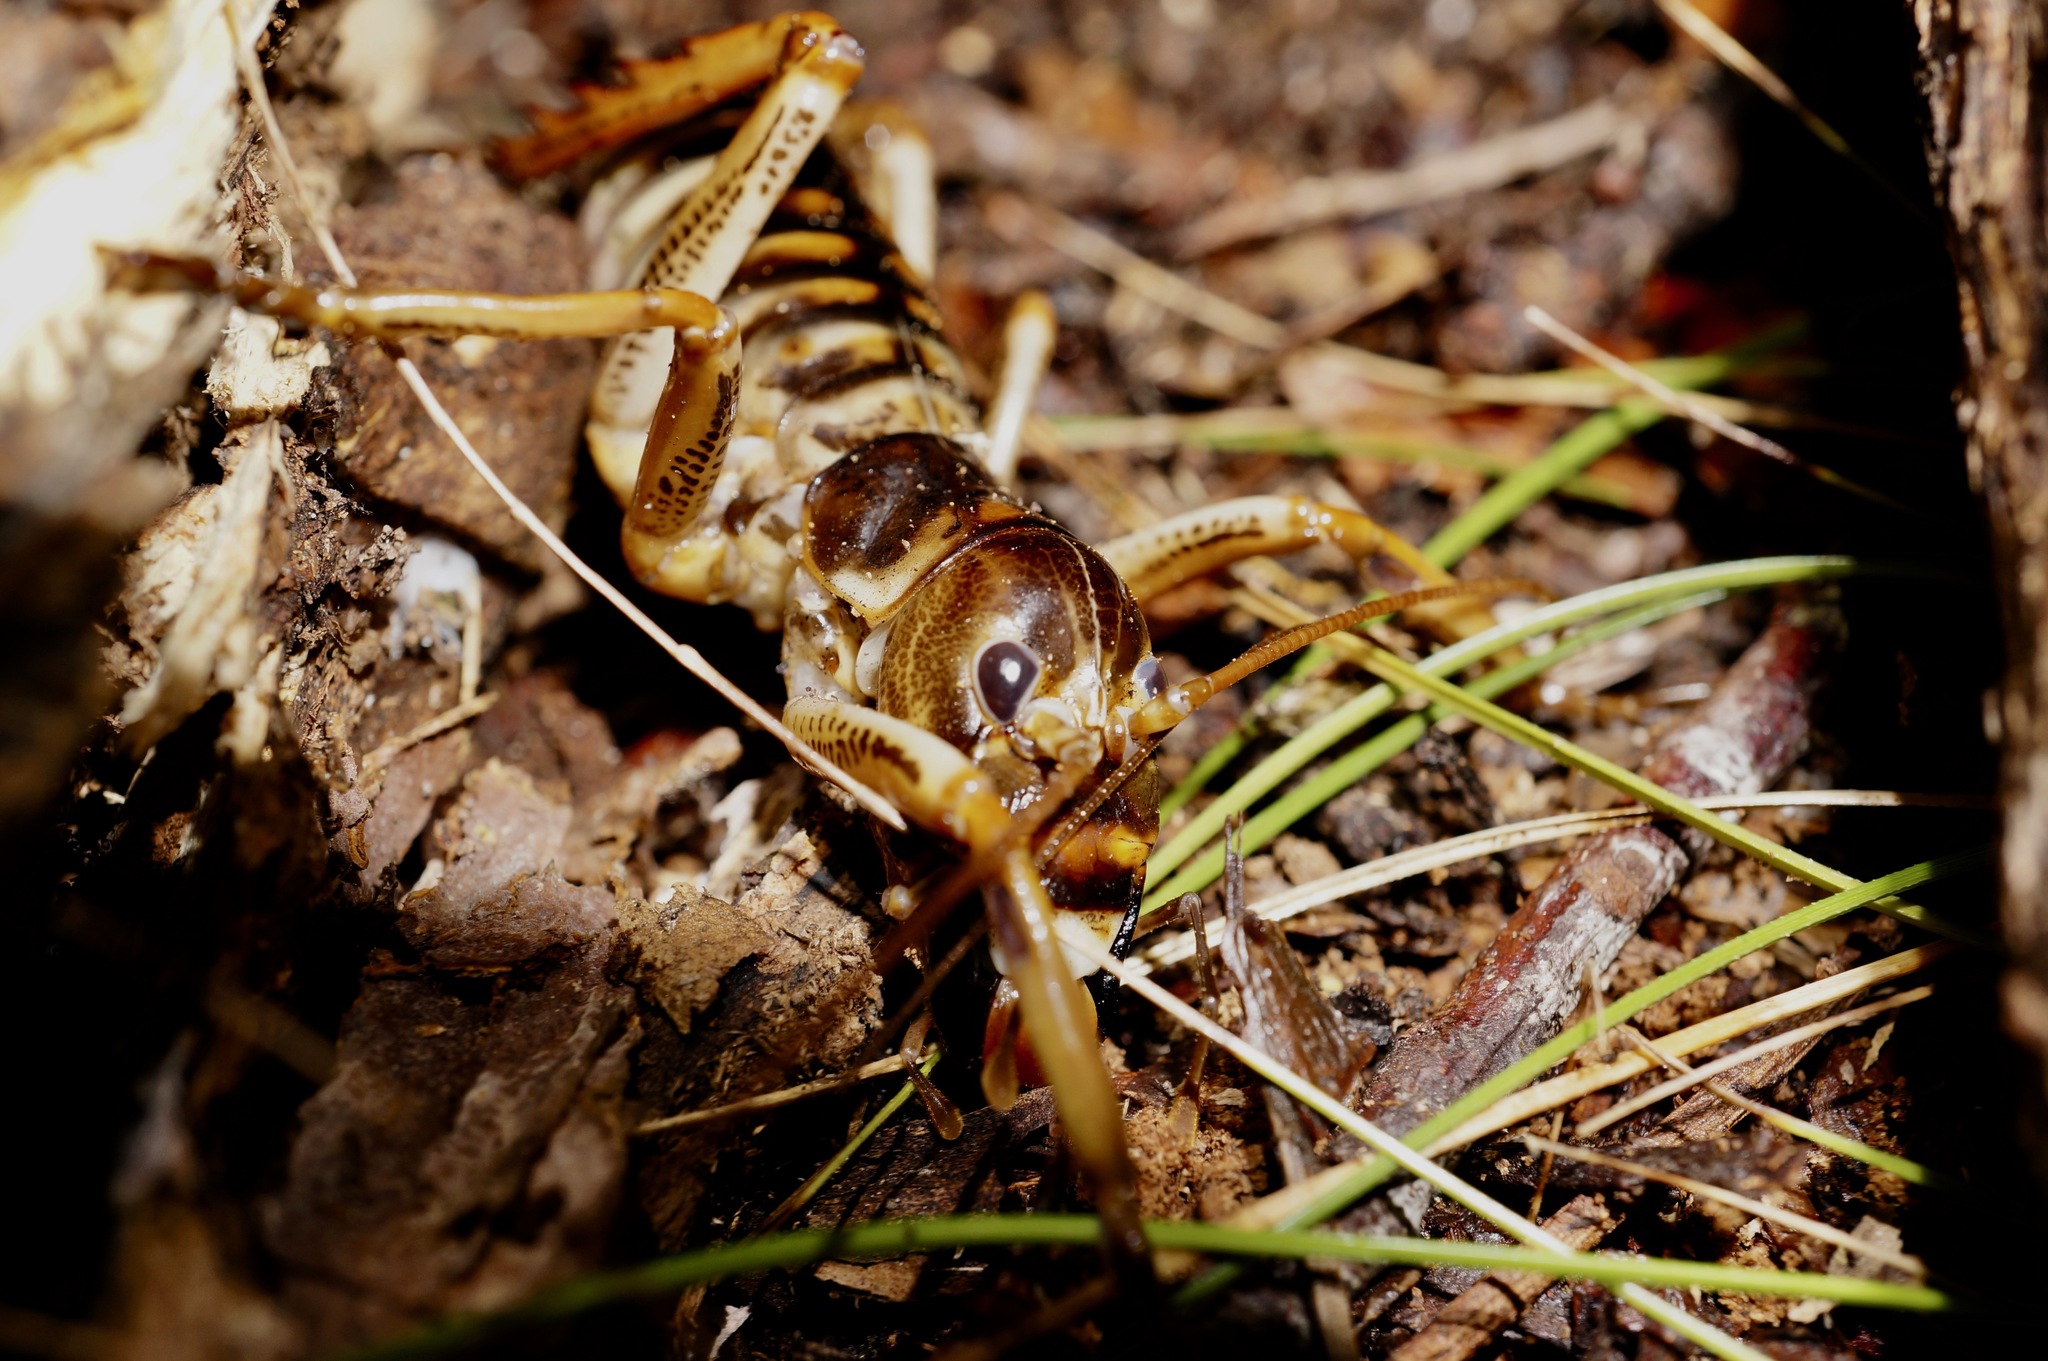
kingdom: Animalia
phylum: Arthropoda
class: Insecta
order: Orthoptera
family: Anostostomatidae
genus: Hemideina
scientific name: Hemideina crassidens
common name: Wellington tree weta
